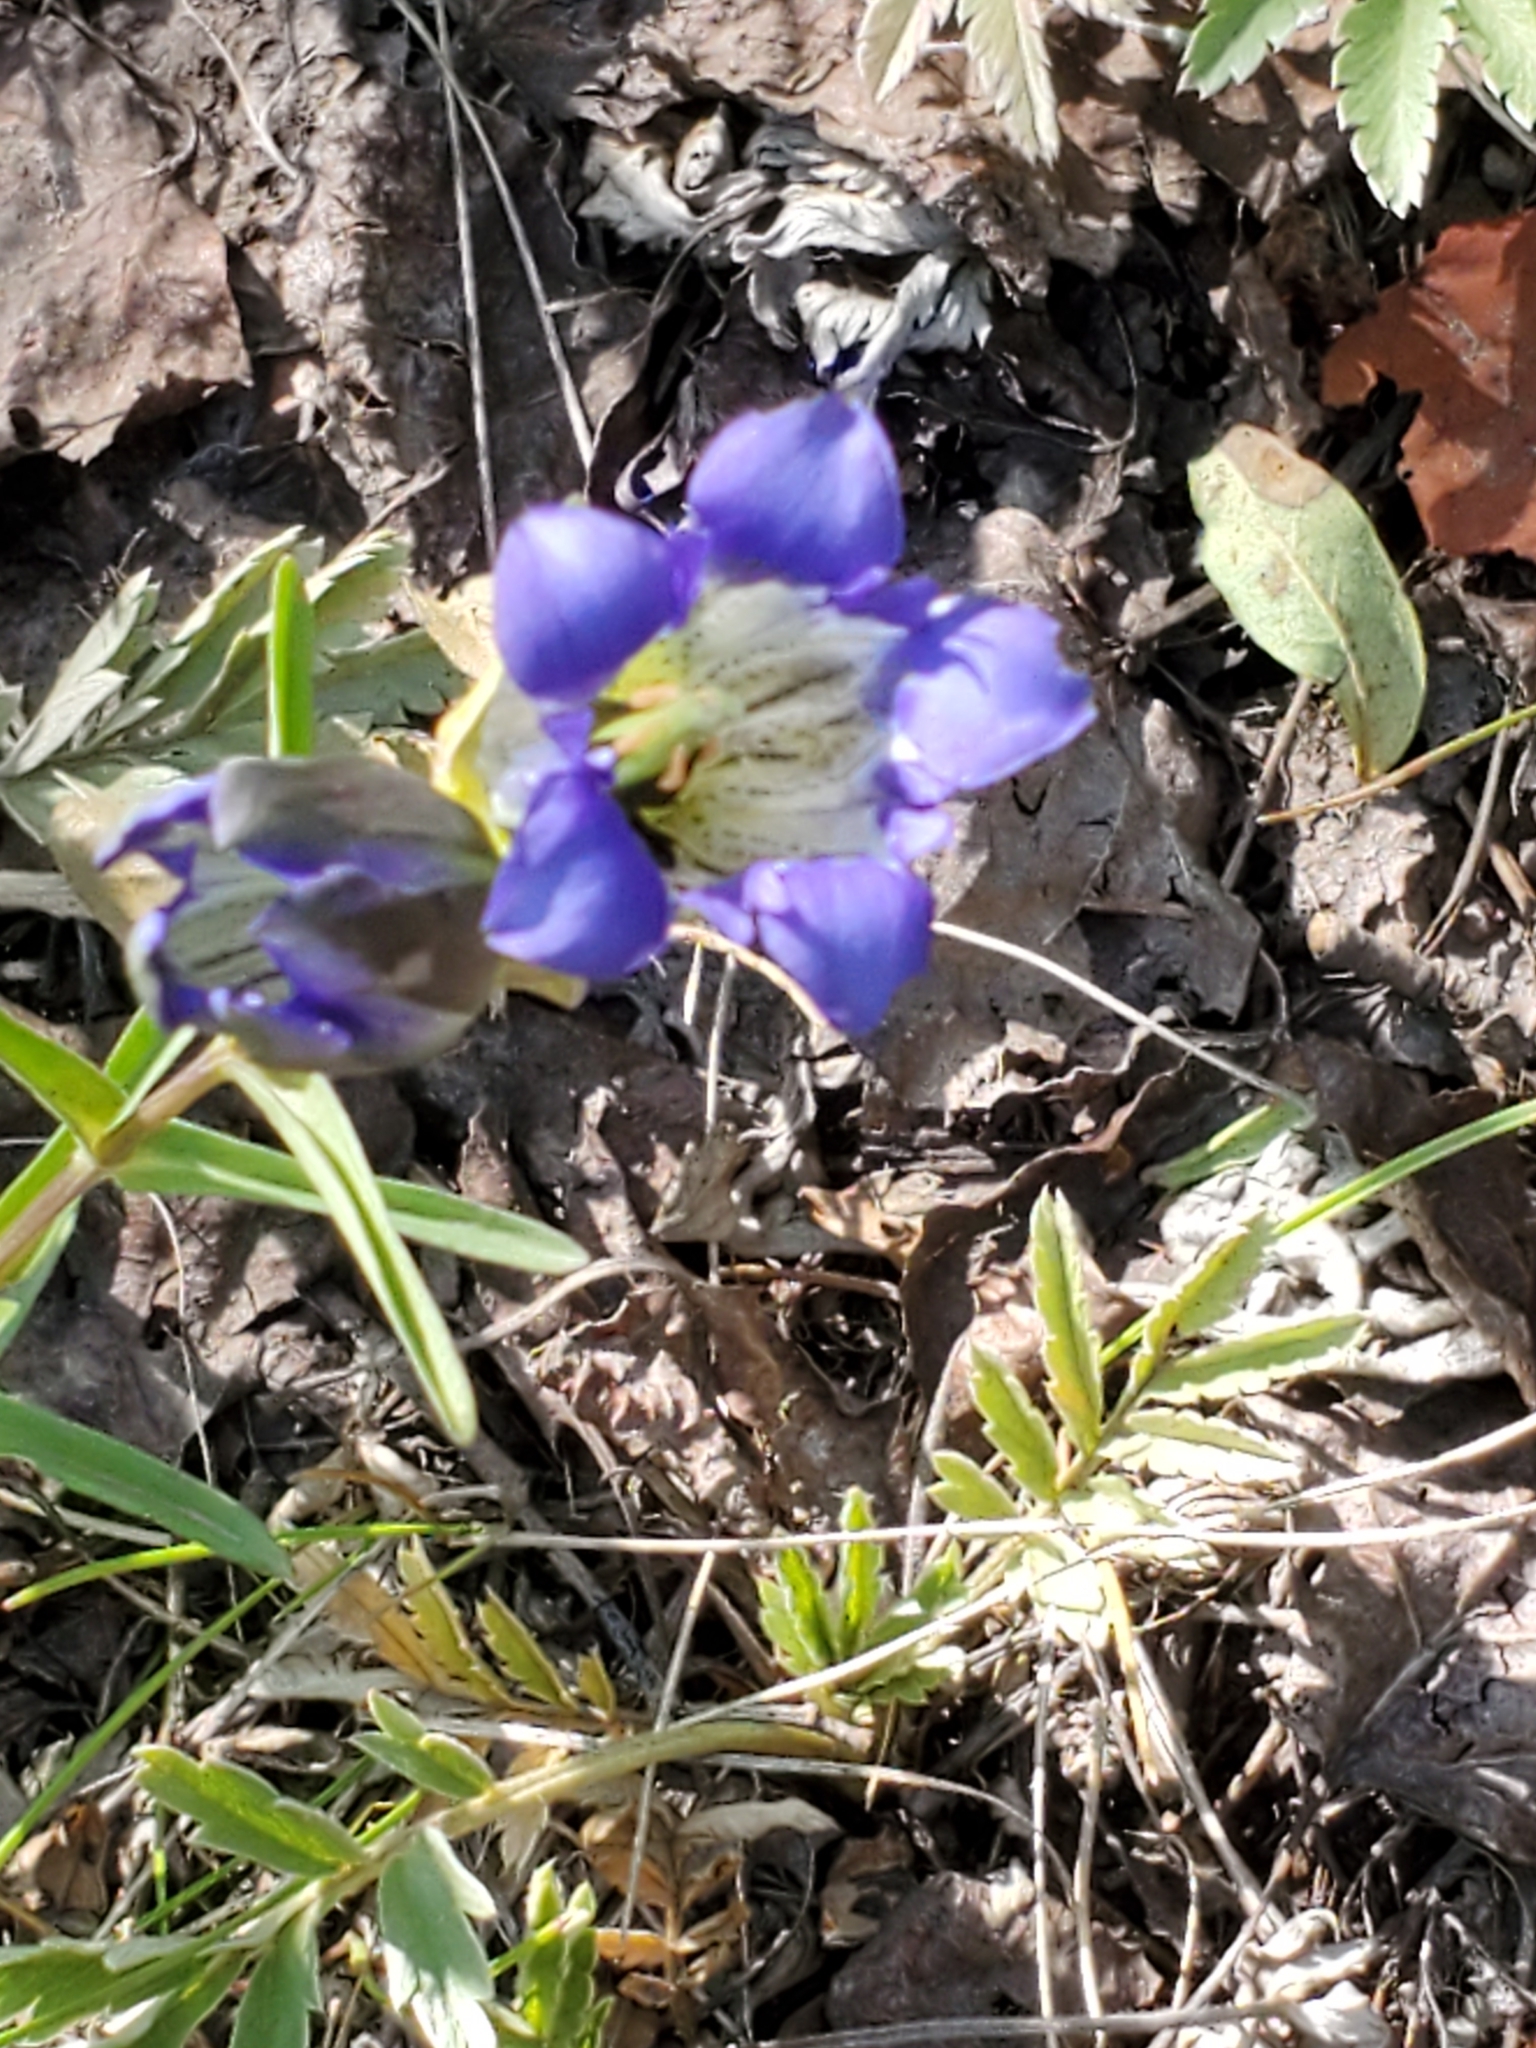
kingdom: Plantae
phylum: Tracheophyta
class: Magnoliopsida
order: Gentianales
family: Gentianaceae
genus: Gentiana
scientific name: Gentiana parryi
